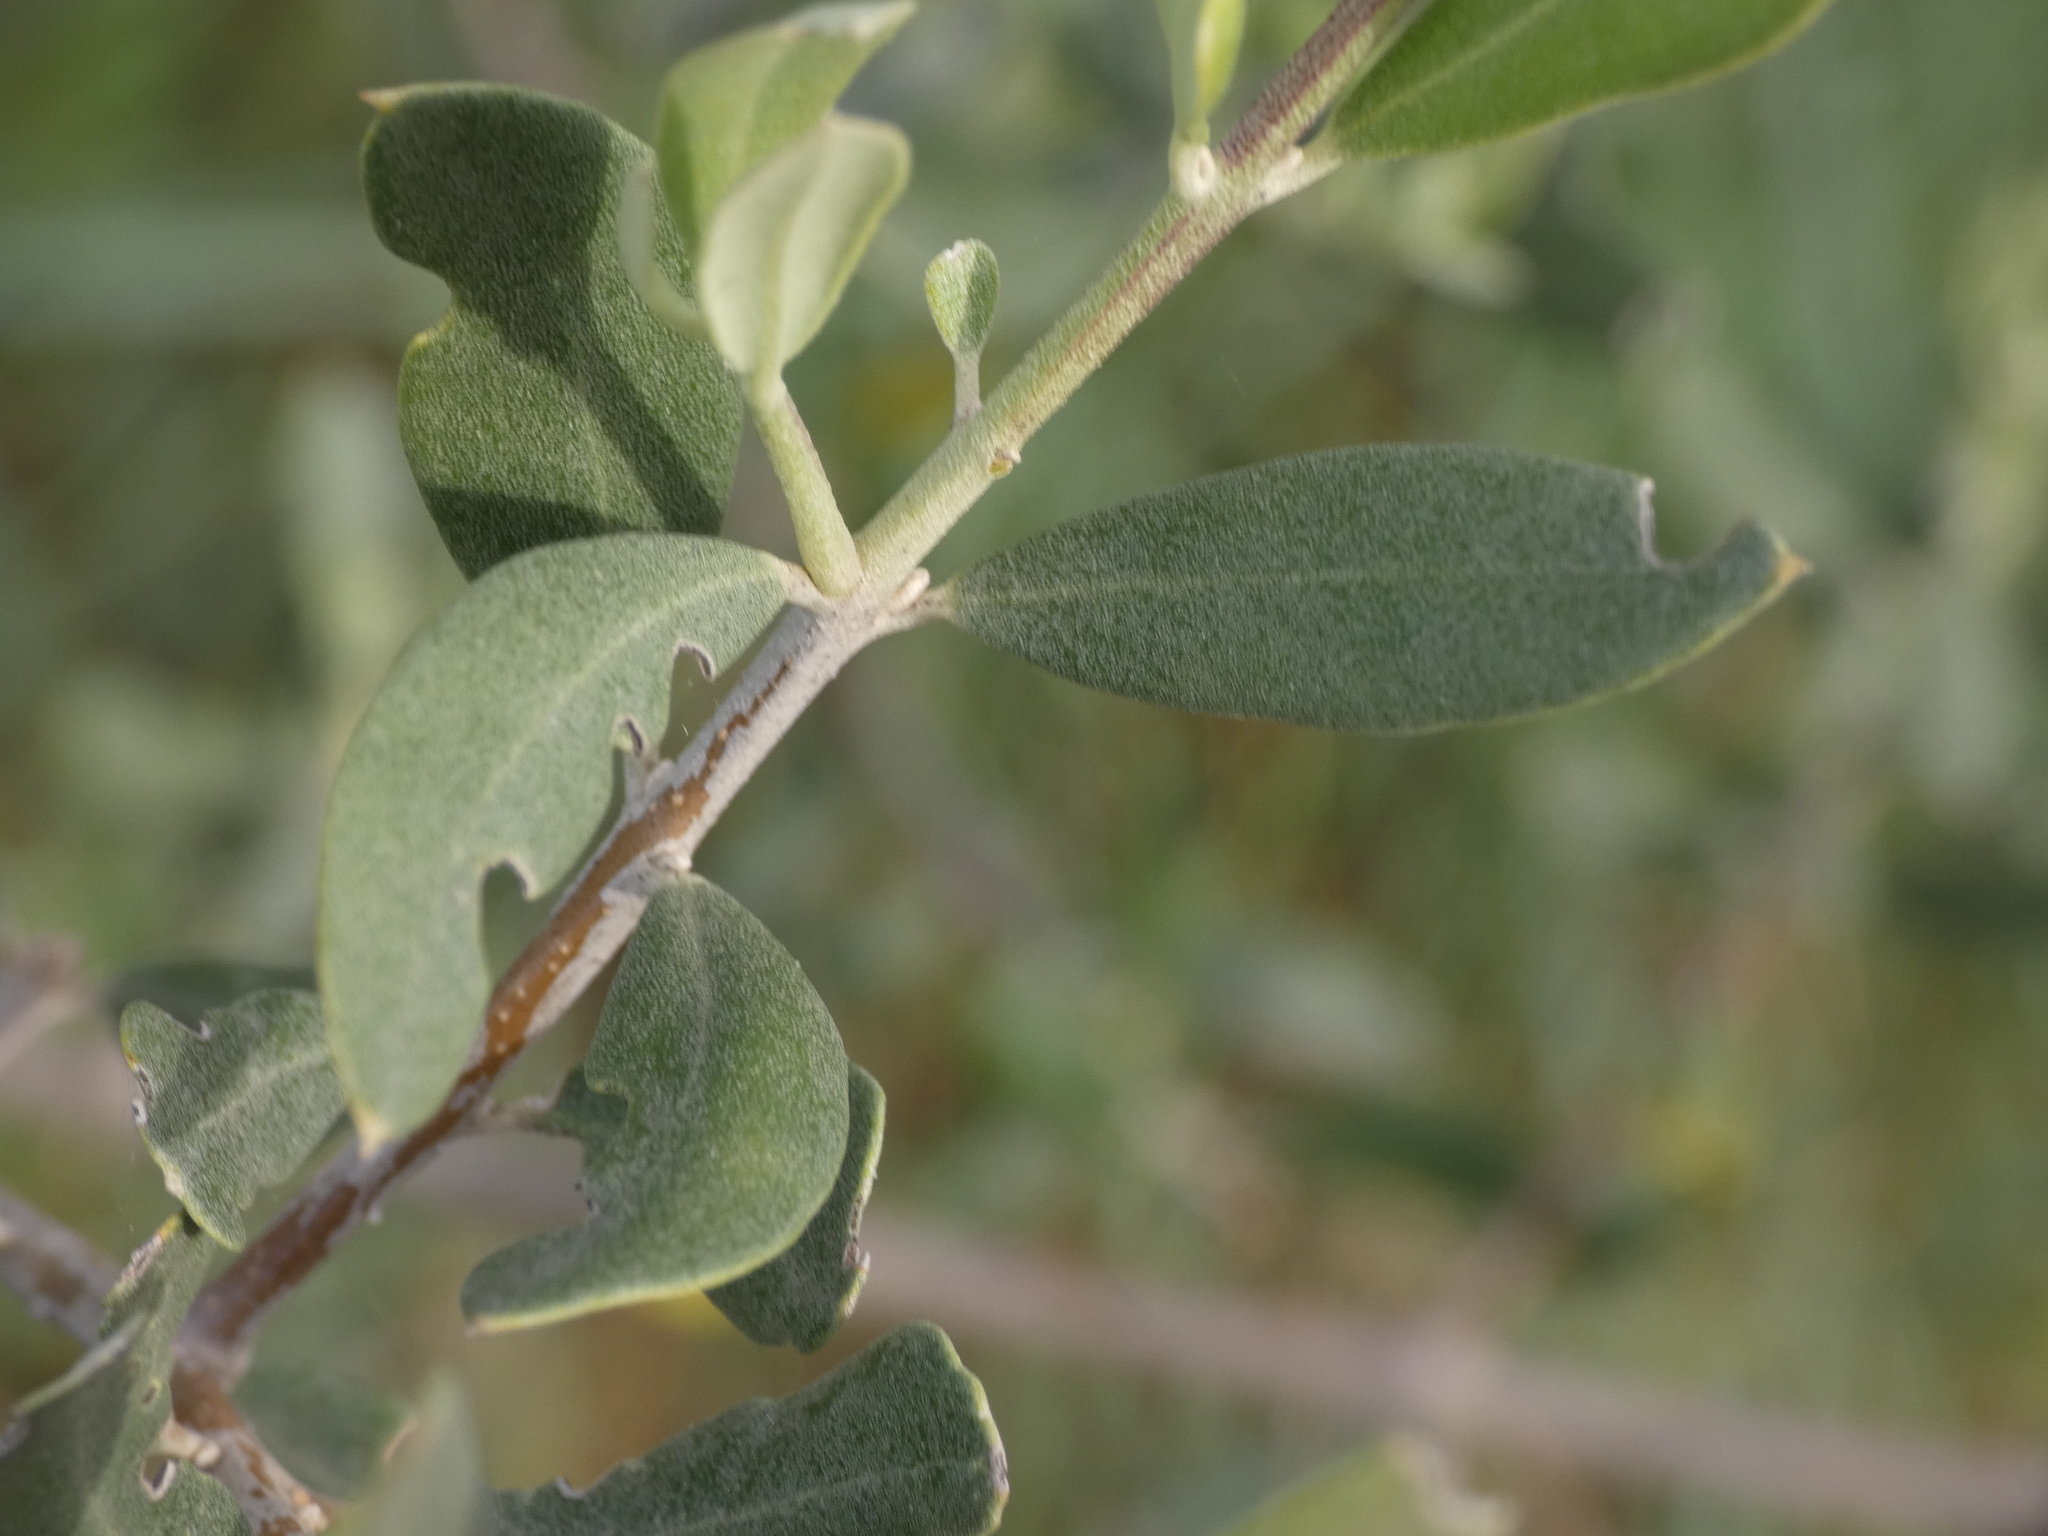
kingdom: Plantae
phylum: Tracheophyta
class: Magnoliopsida
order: Lamiales
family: Oleaceae
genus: Olea
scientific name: Olea europaea
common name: Olive
